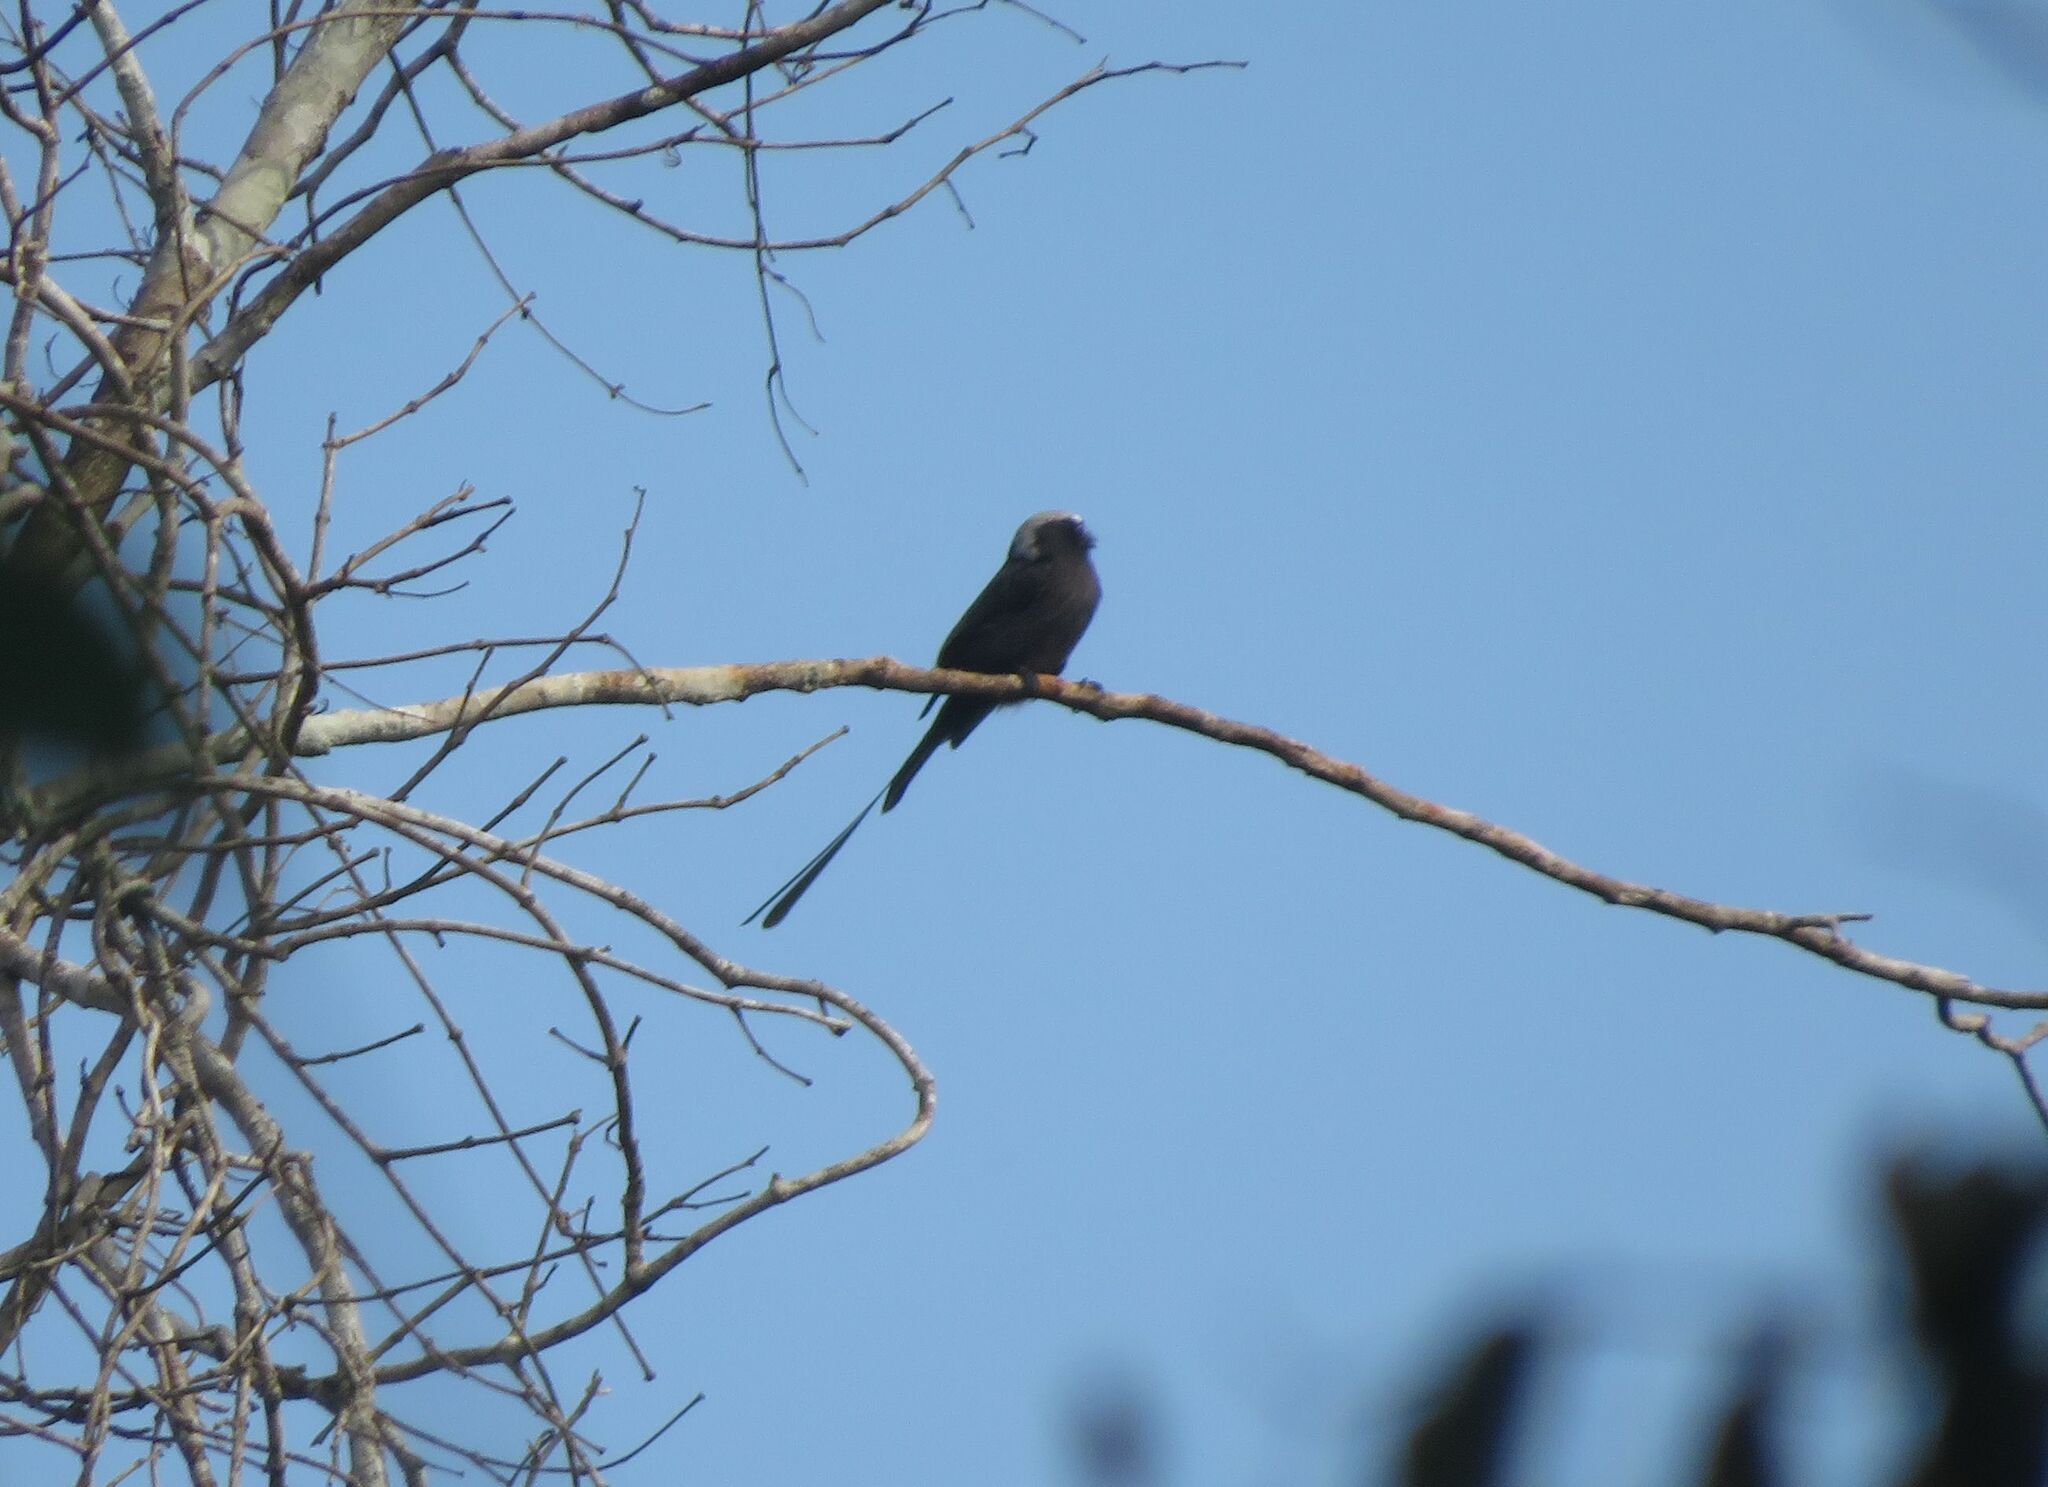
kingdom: Animalia
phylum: Chordata
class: Aves
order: Passeriformes
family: Tyrannidae
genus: Colonia
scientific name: Colonia colonus
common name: Long-tailed tyrant
